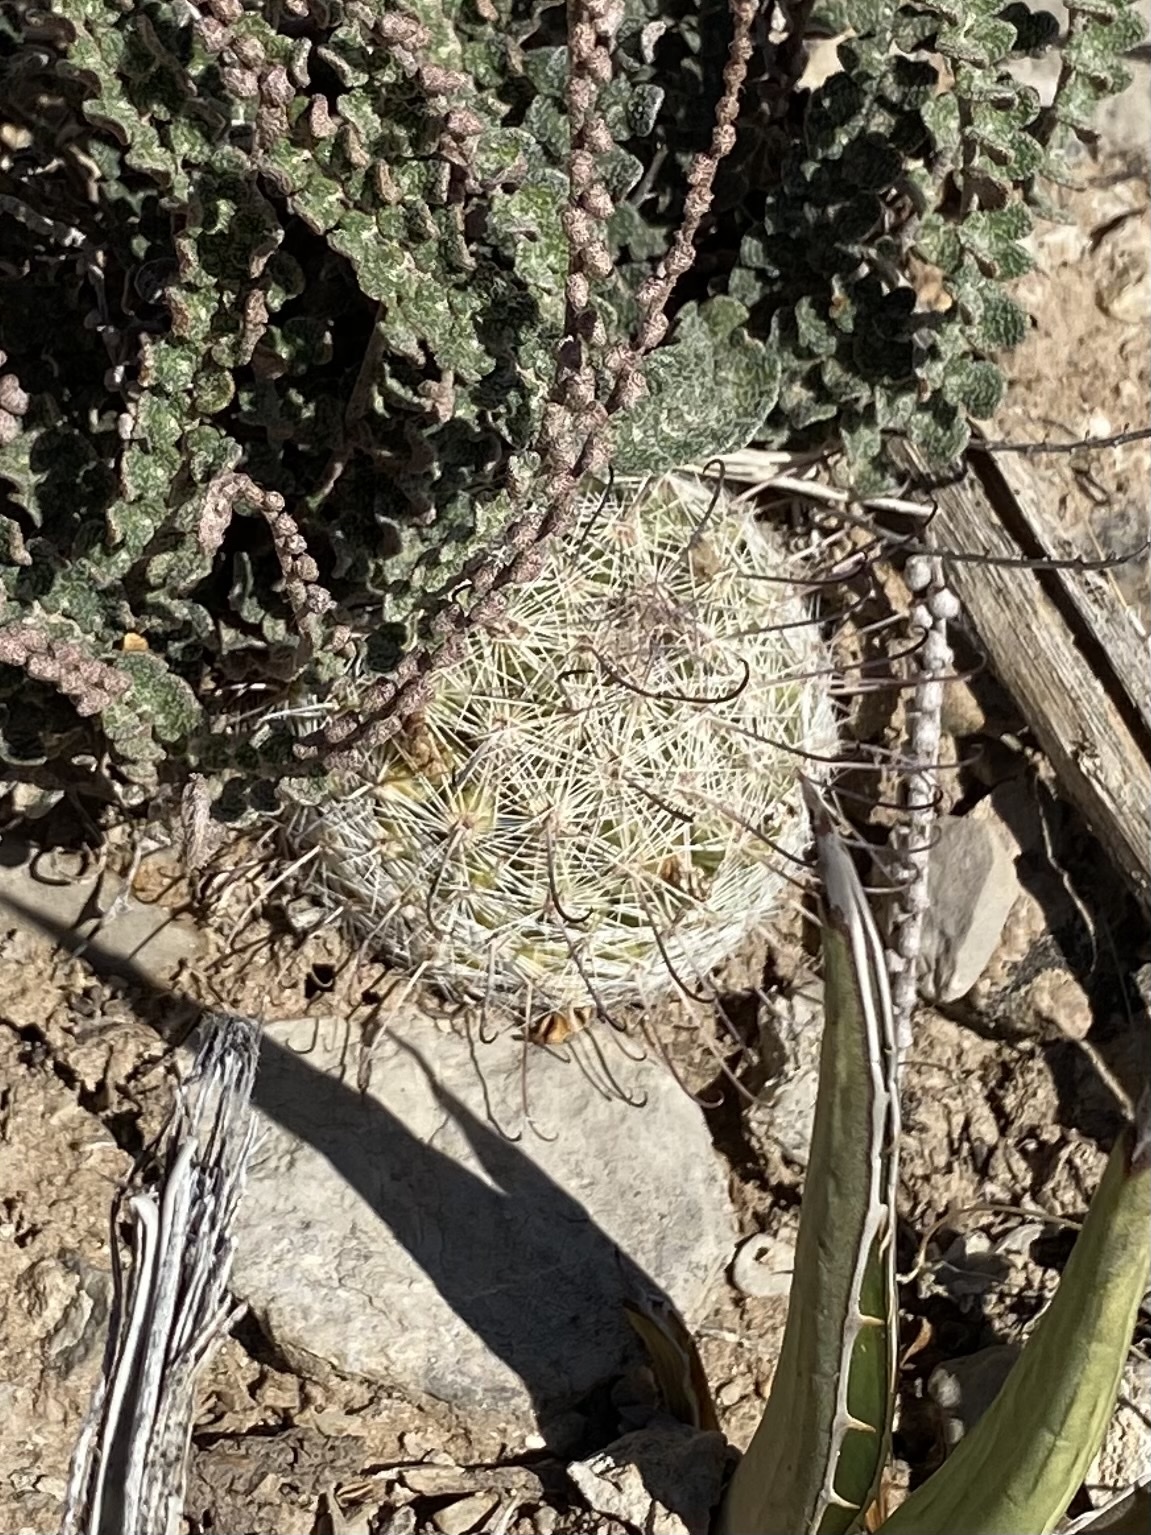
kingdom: Plantae
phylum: Tracheophyta
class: Magnoliopsida
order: Caryophyllales
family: Cactaceae
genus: Cochemiea
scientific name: Cochemiea grahamii
